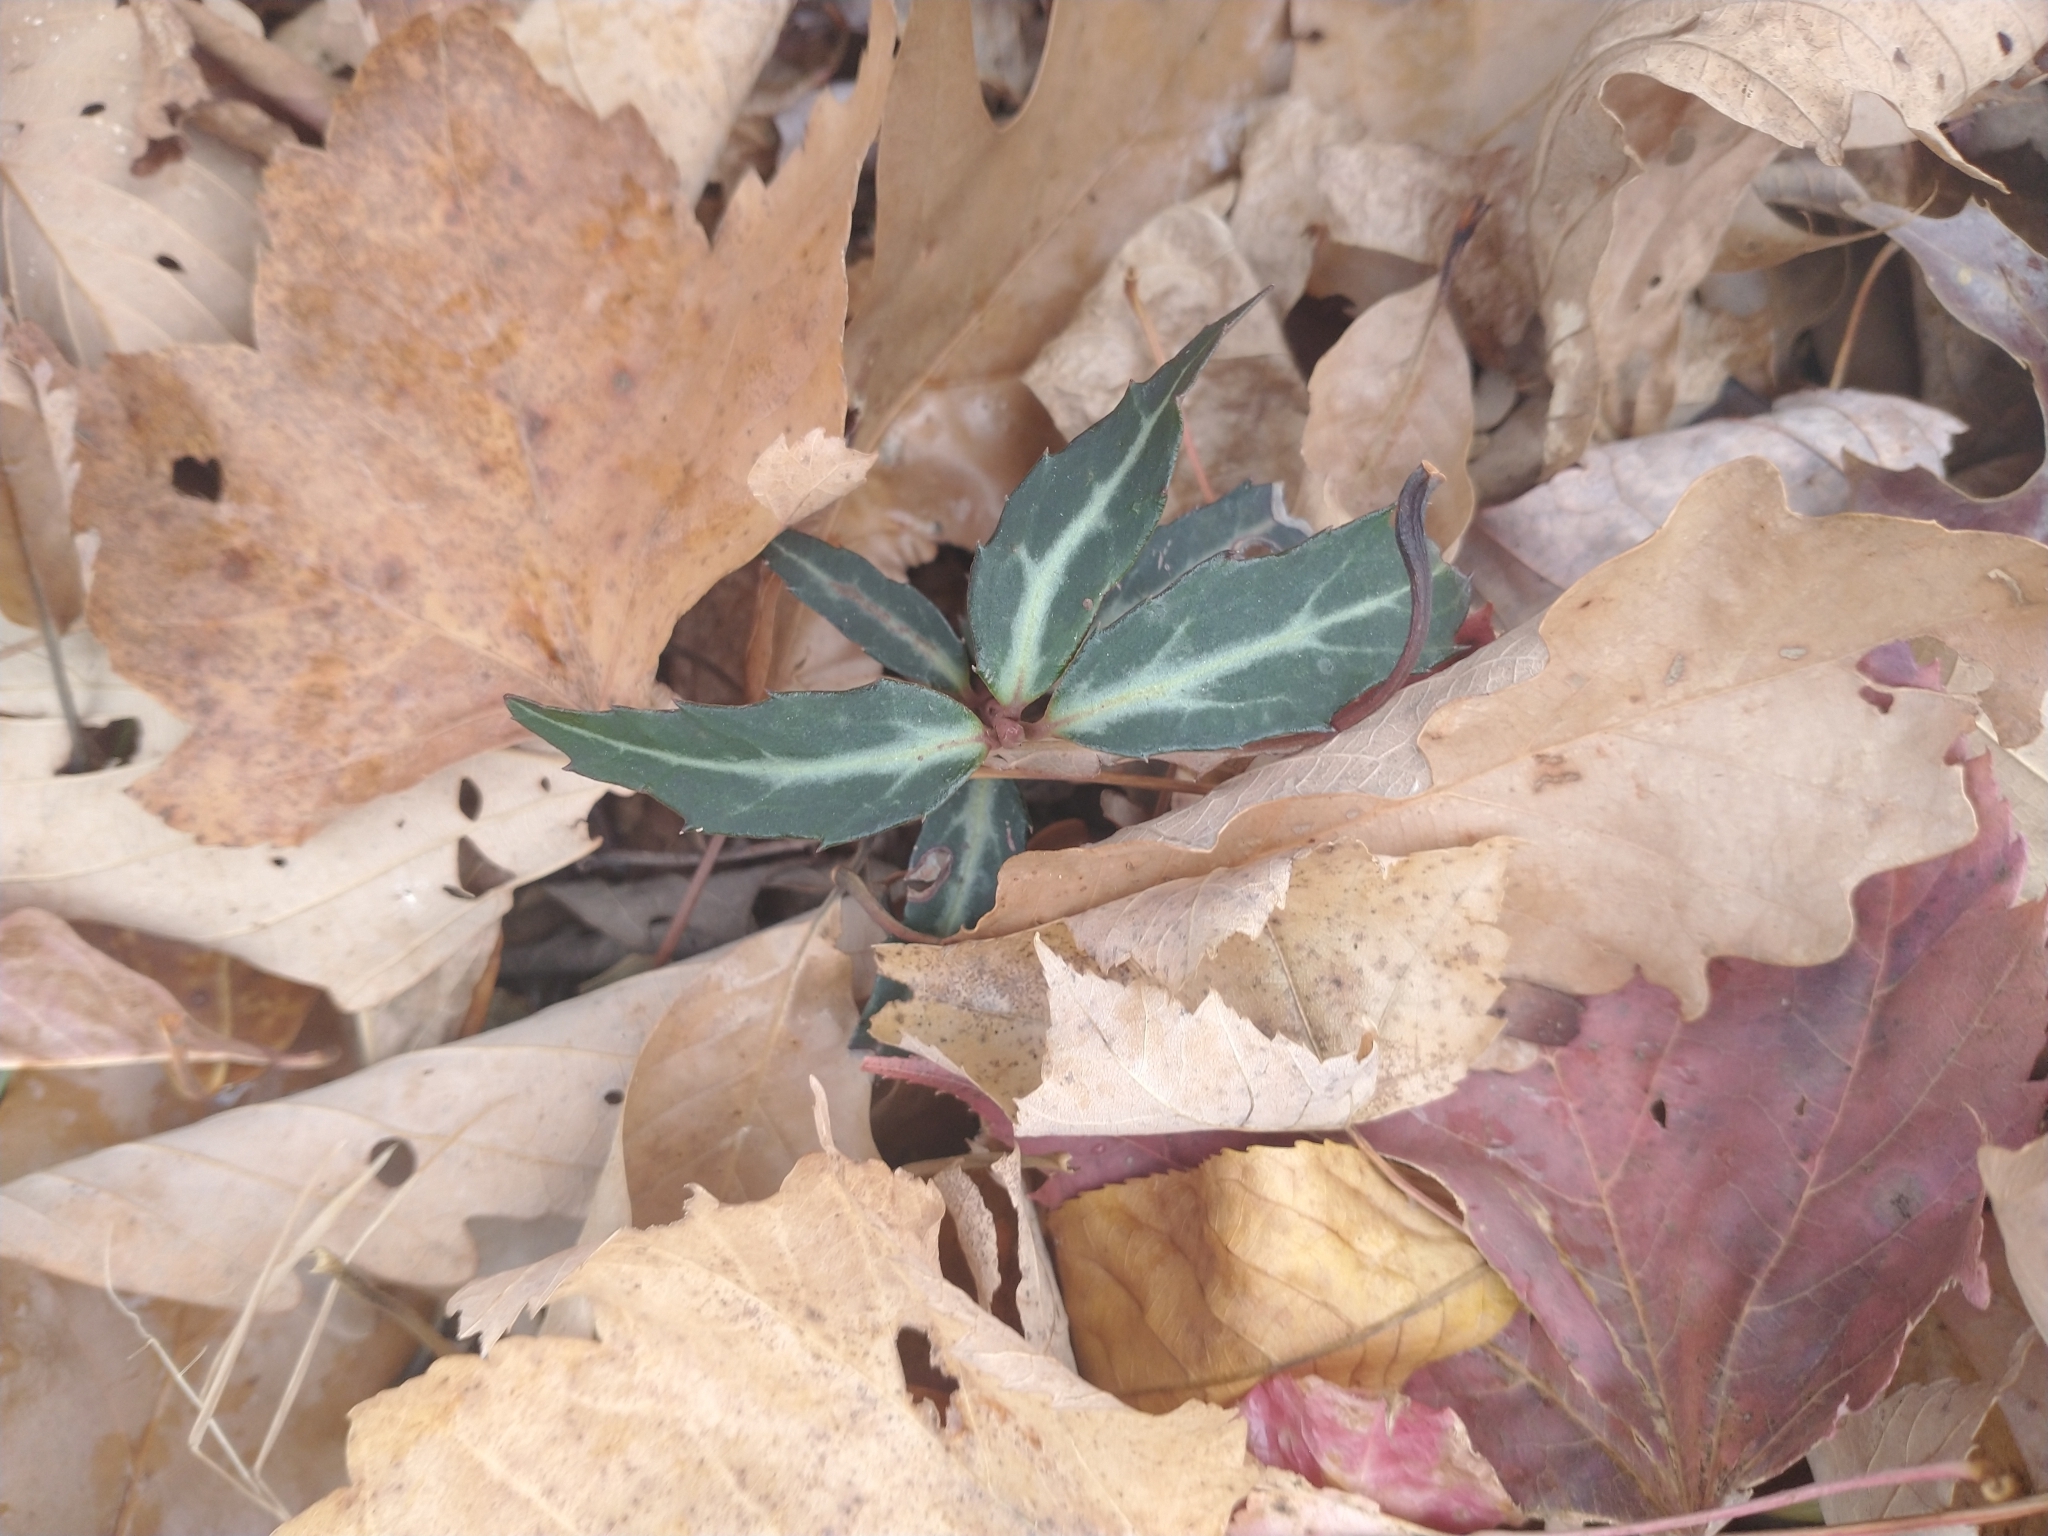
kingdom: Plantae
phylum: Tracheophyta
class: Magnoliopsida
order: Ericales
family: Ericaceae
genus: Chimaphila
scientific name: Chimaphila maculata
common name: Spotted pipsissewa
